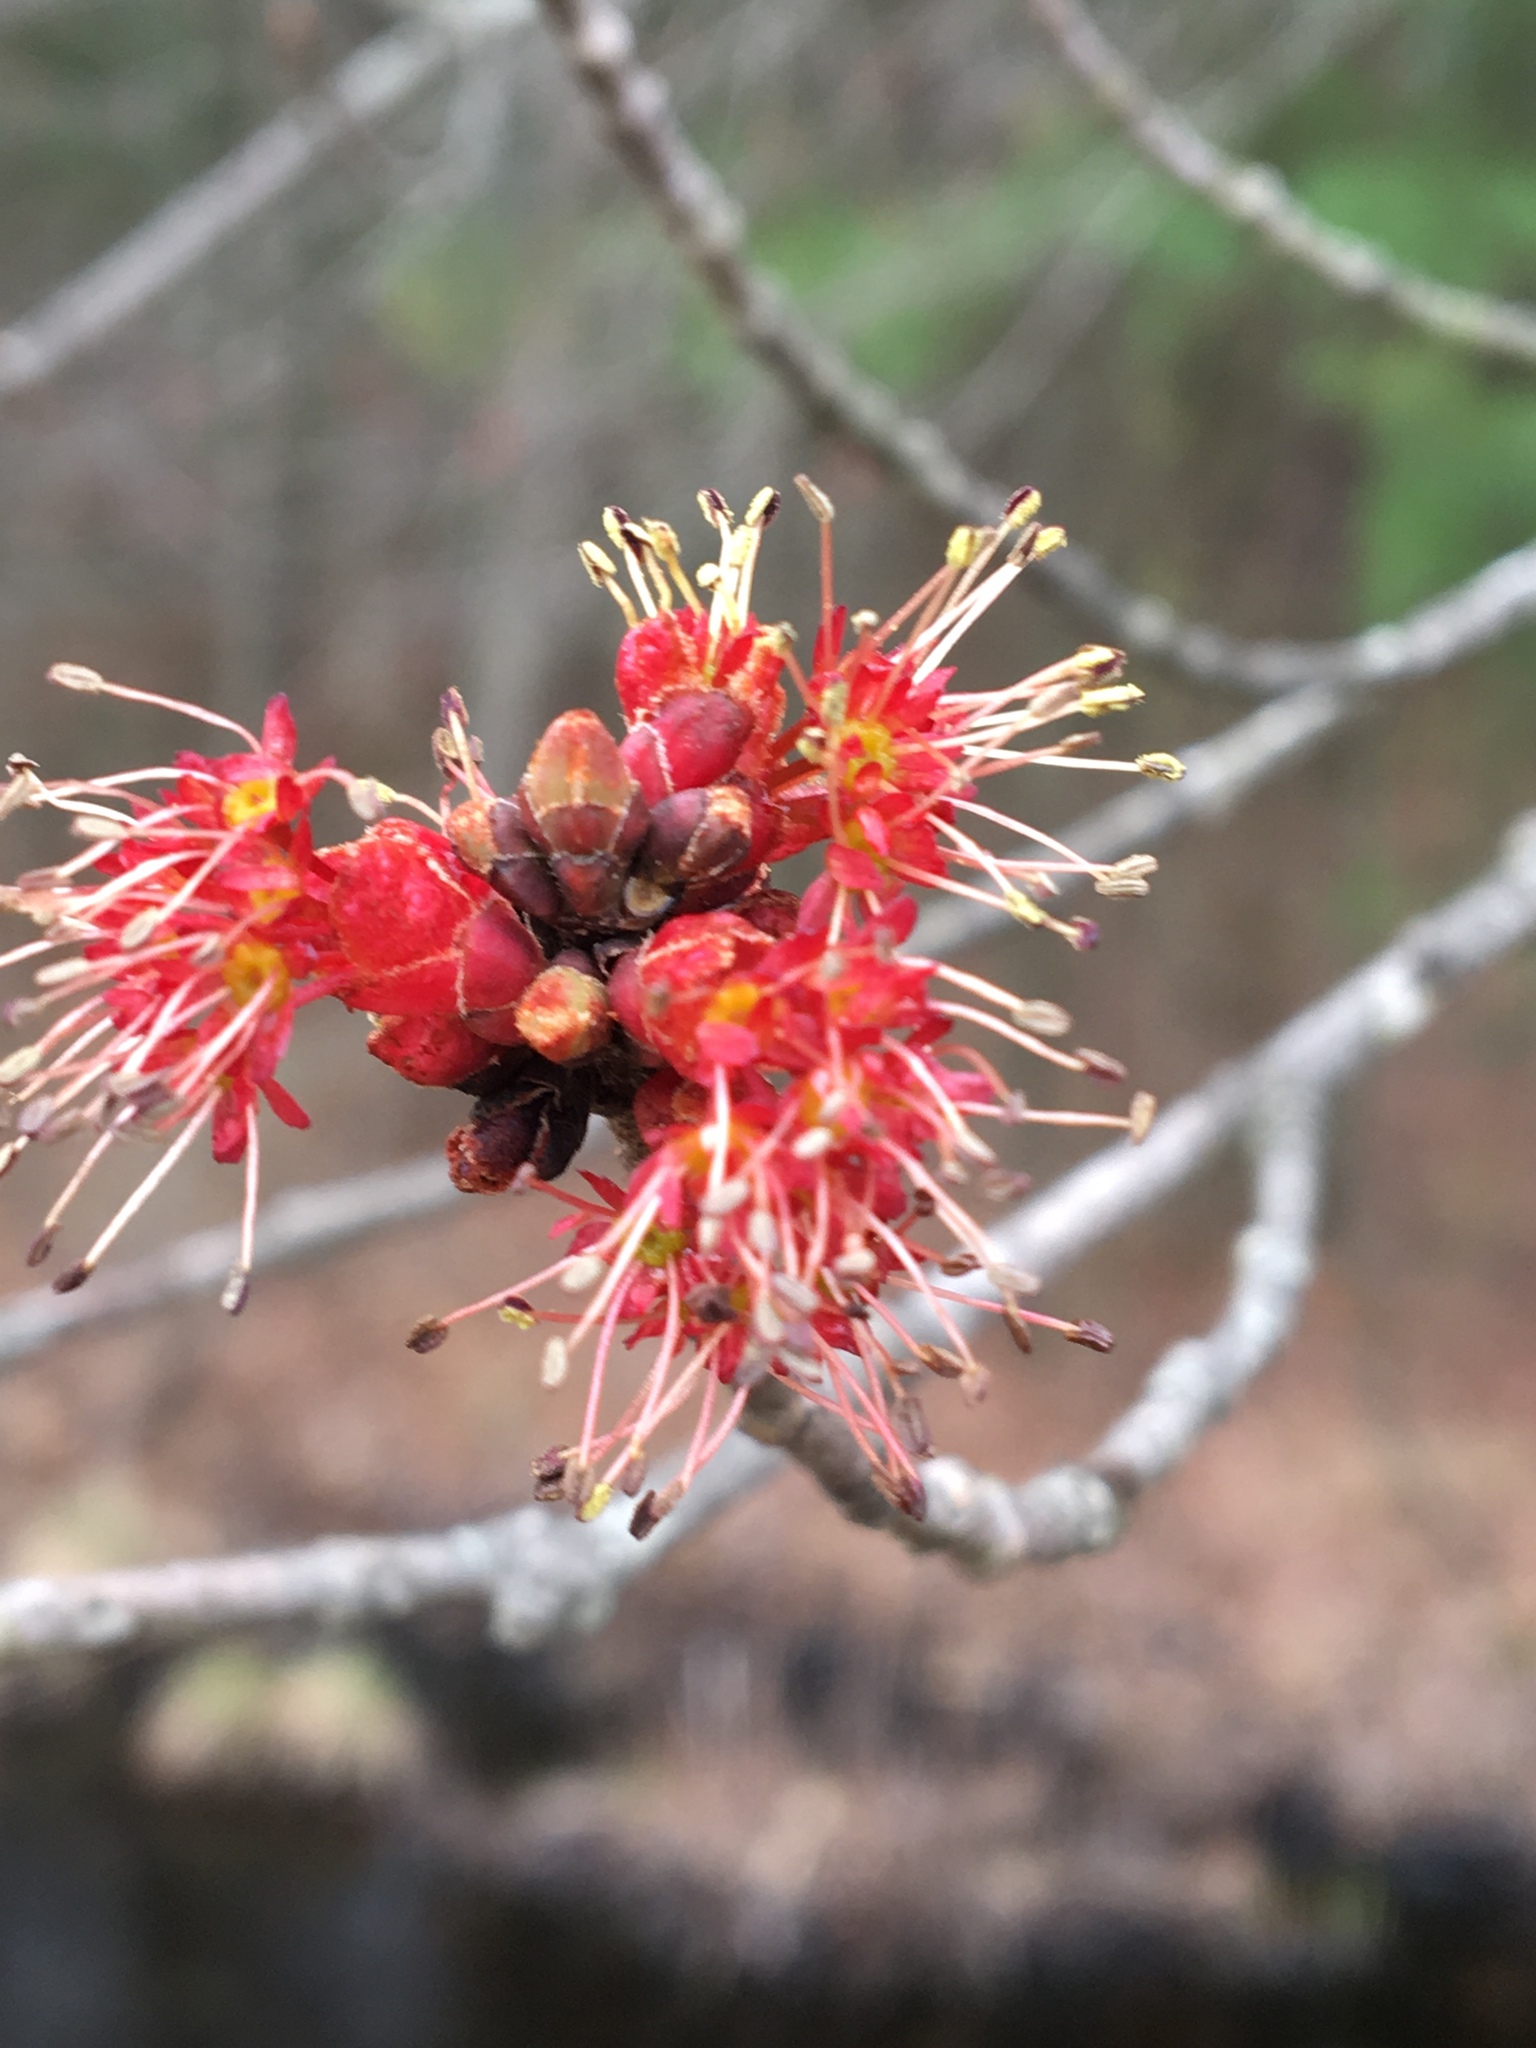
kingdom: Plantae
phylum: Tracheophyta
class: Magnoliopsida
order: Sapindales
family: Sapindaceae
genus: Acer
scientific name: Acer rubrum
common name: Red maple
